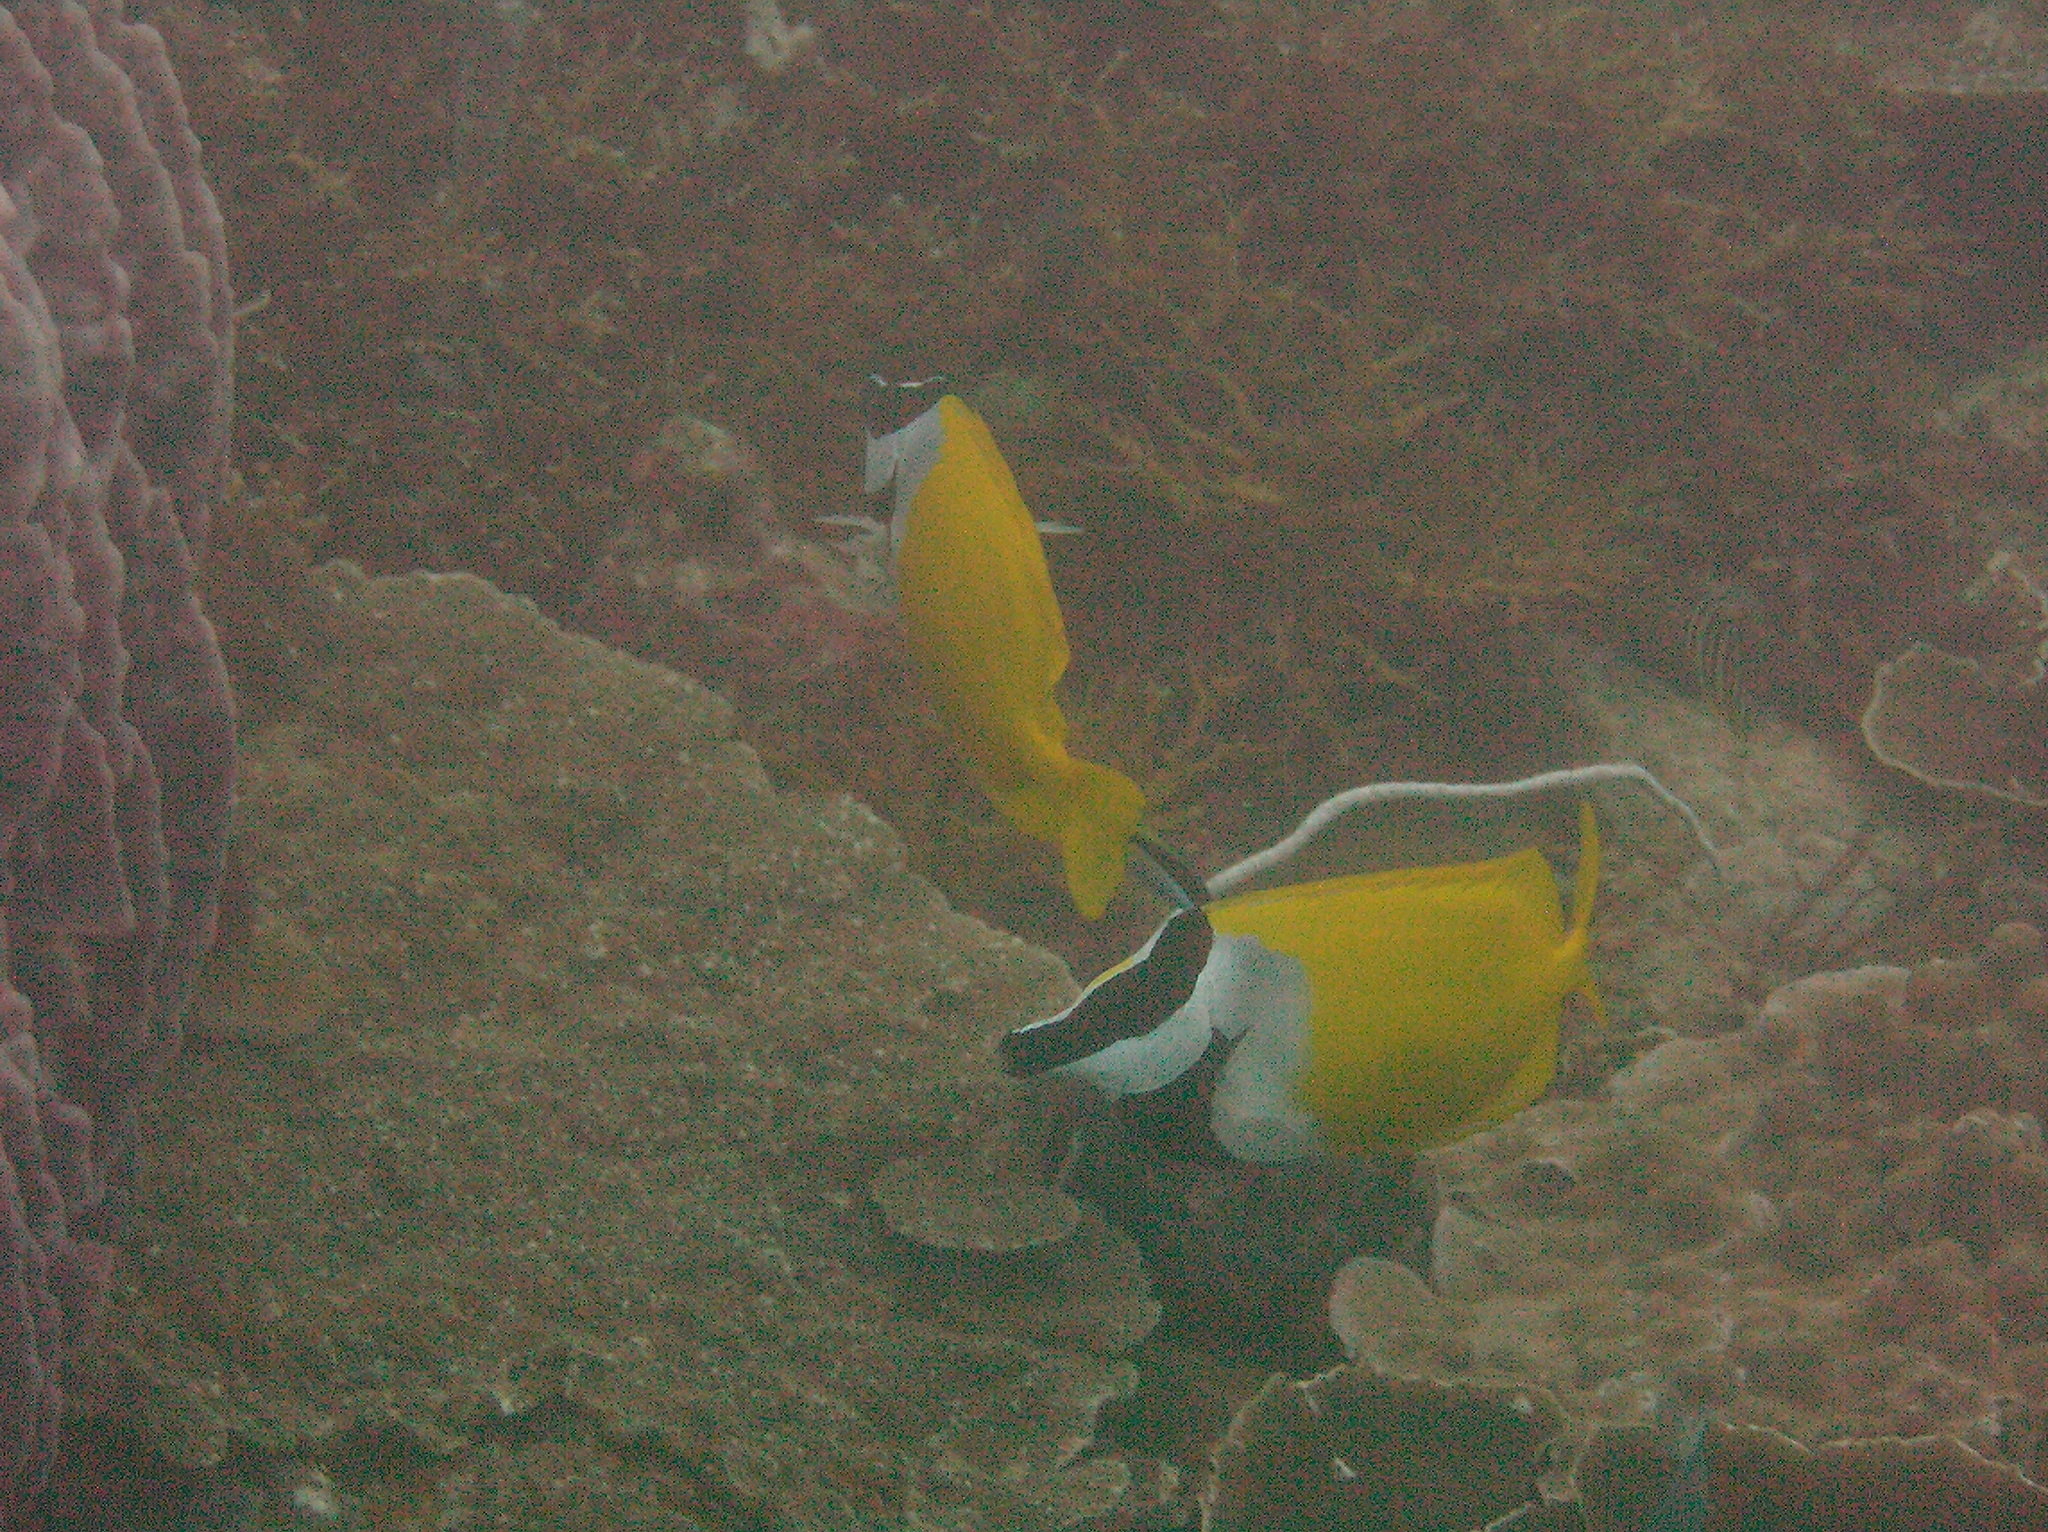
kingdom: Animalia
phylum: Chordata
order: Perciformes
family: Siganidae
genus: Siganus
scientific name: Siganus vulpinus
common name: Foxface
